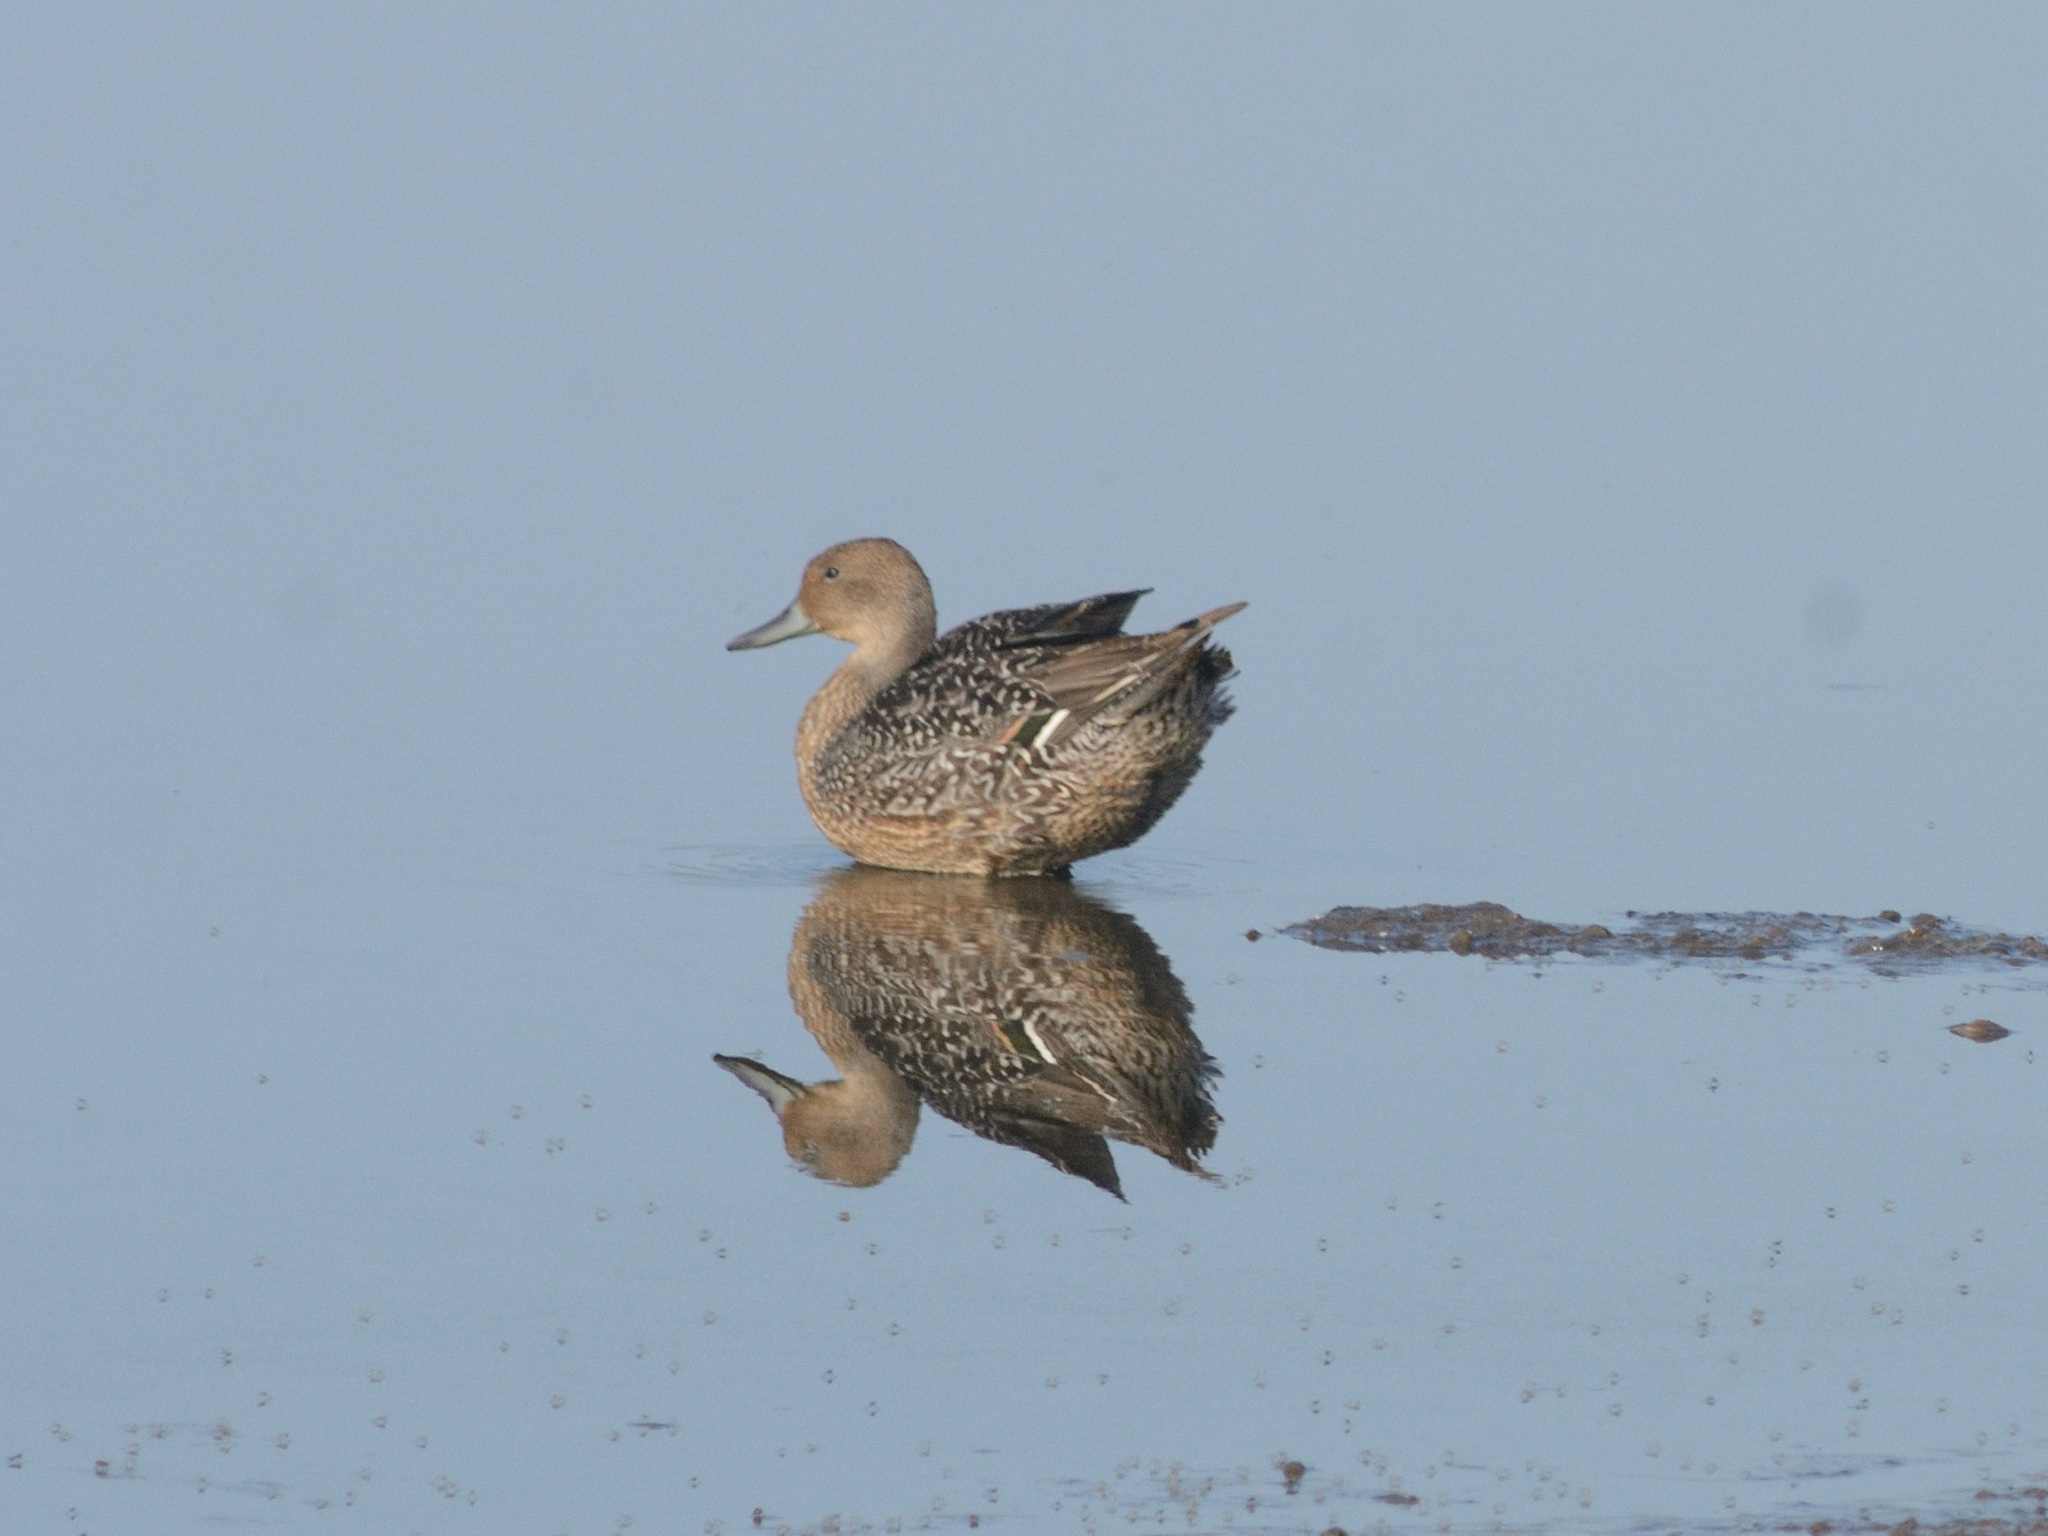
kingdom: Animalia
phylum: Chordata
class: Aves
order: Anseriformes
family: Anatidae
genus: Anas
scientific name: Anas acuta
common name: Northern pintail
